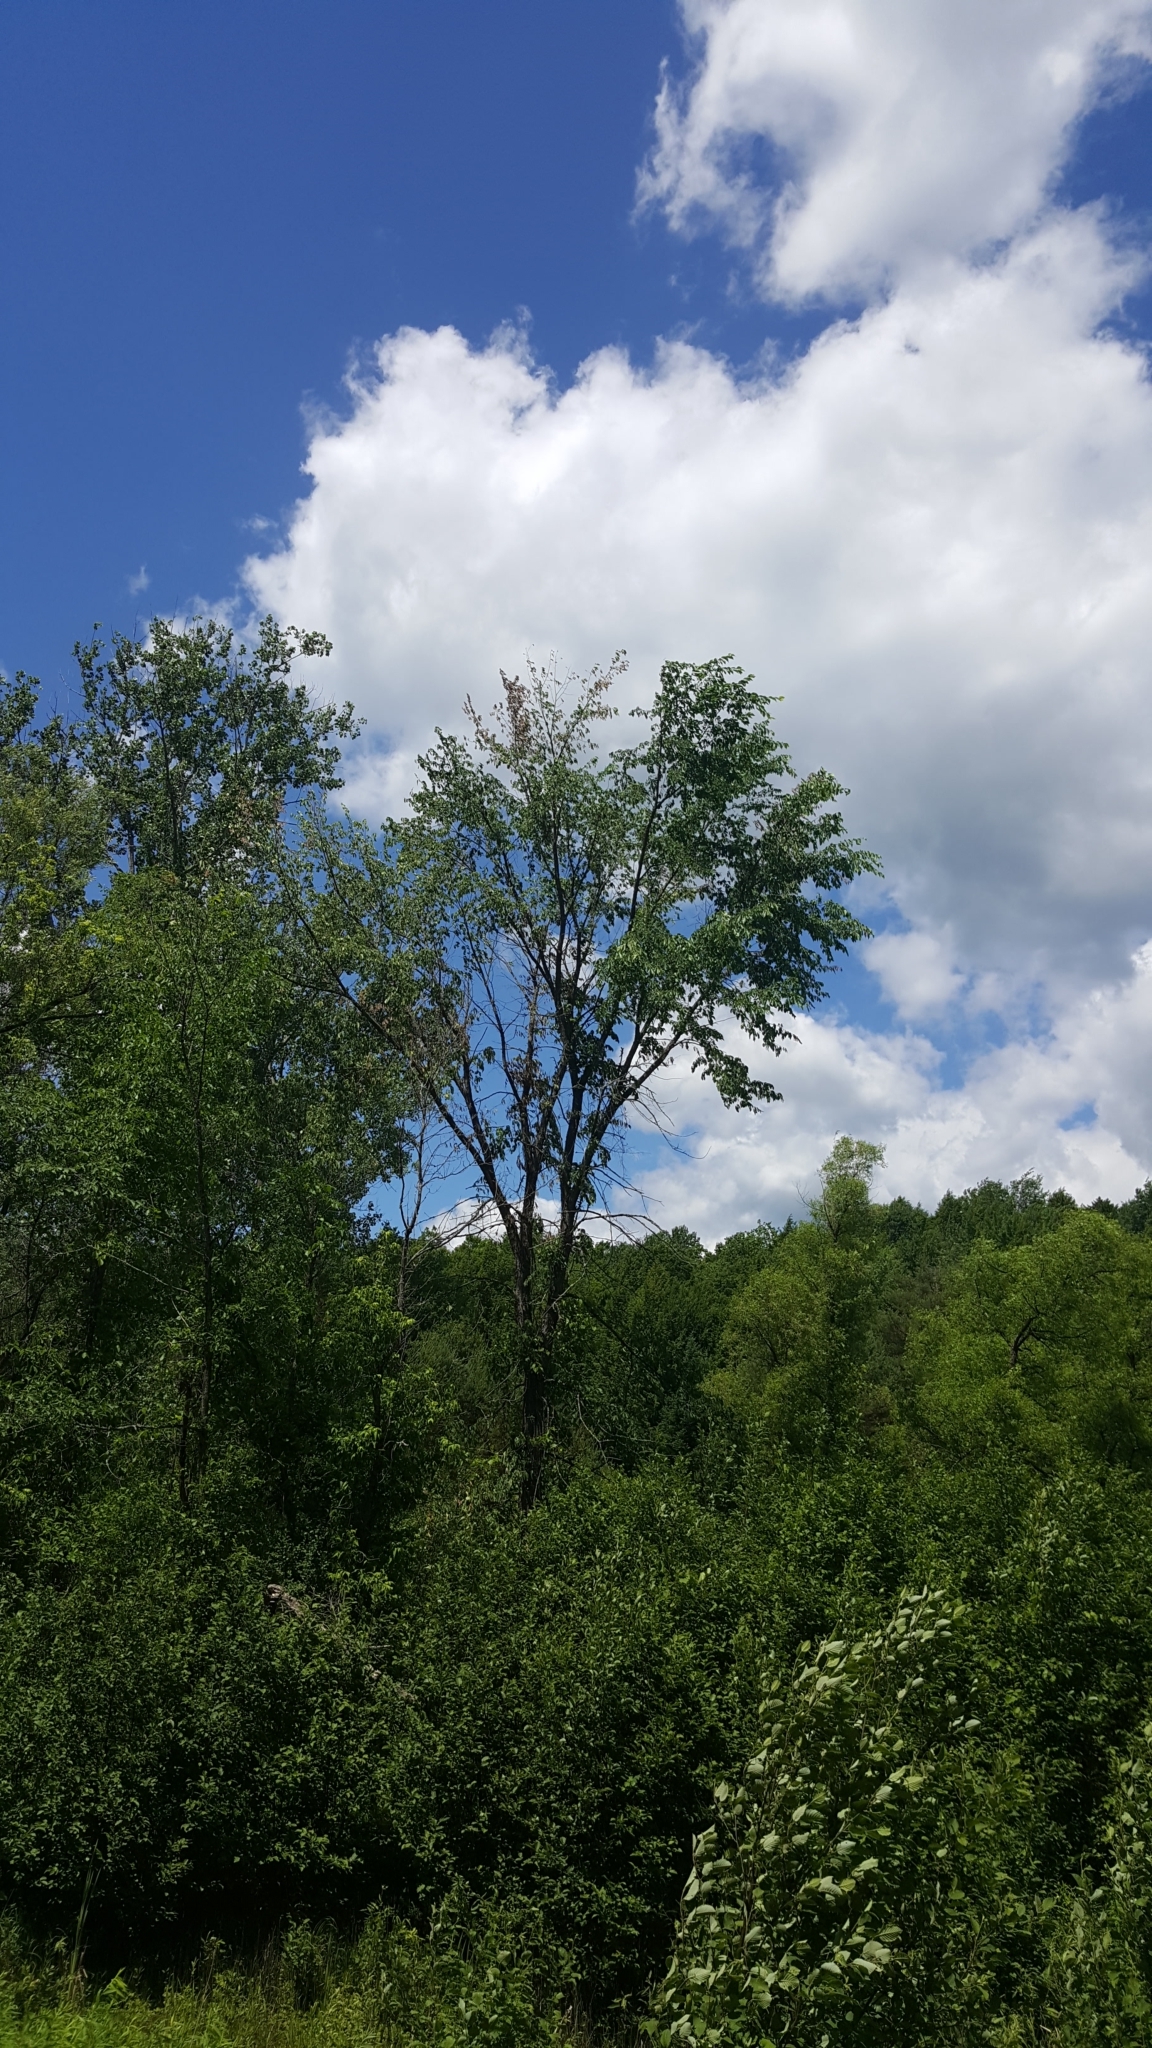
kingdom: Plantae
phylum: Tracheophyta
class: Magnoliopsida
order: Rosales
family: Ulmaceae
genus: Ulmus
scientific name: Ulmus americana
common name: American elm
